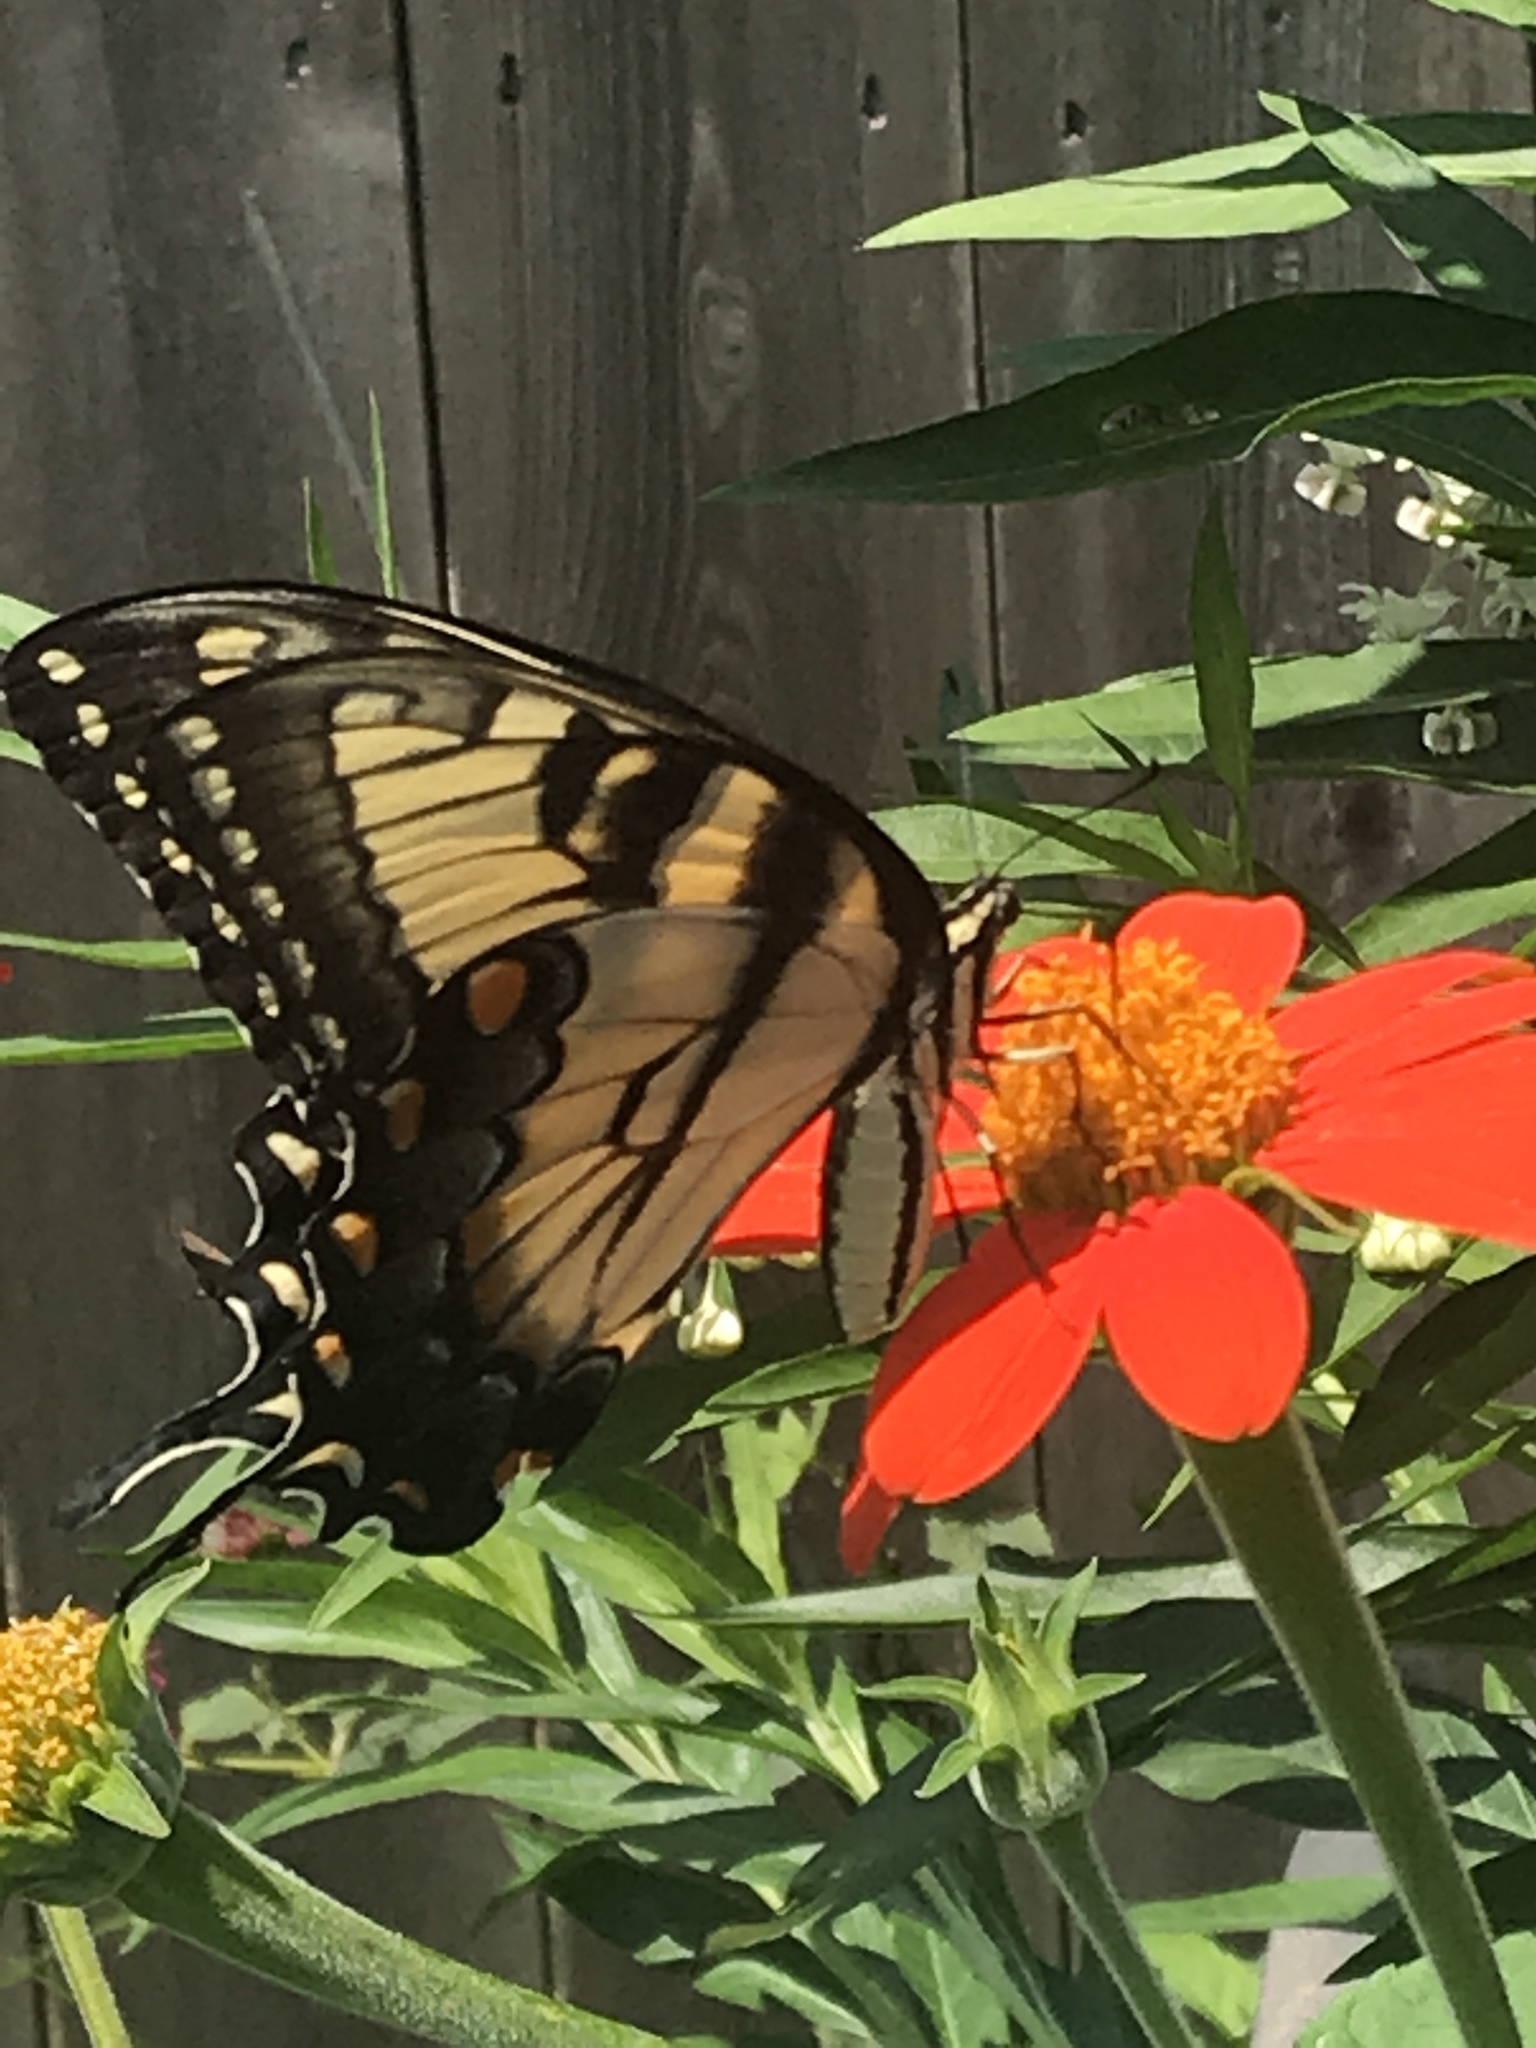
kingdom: Animalia
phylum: Arthropoda
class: Insecta
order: Lepidoptera
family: Papilionidae
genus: Papilio
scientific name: Papilio glaucus
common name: Tiger swallowtail
